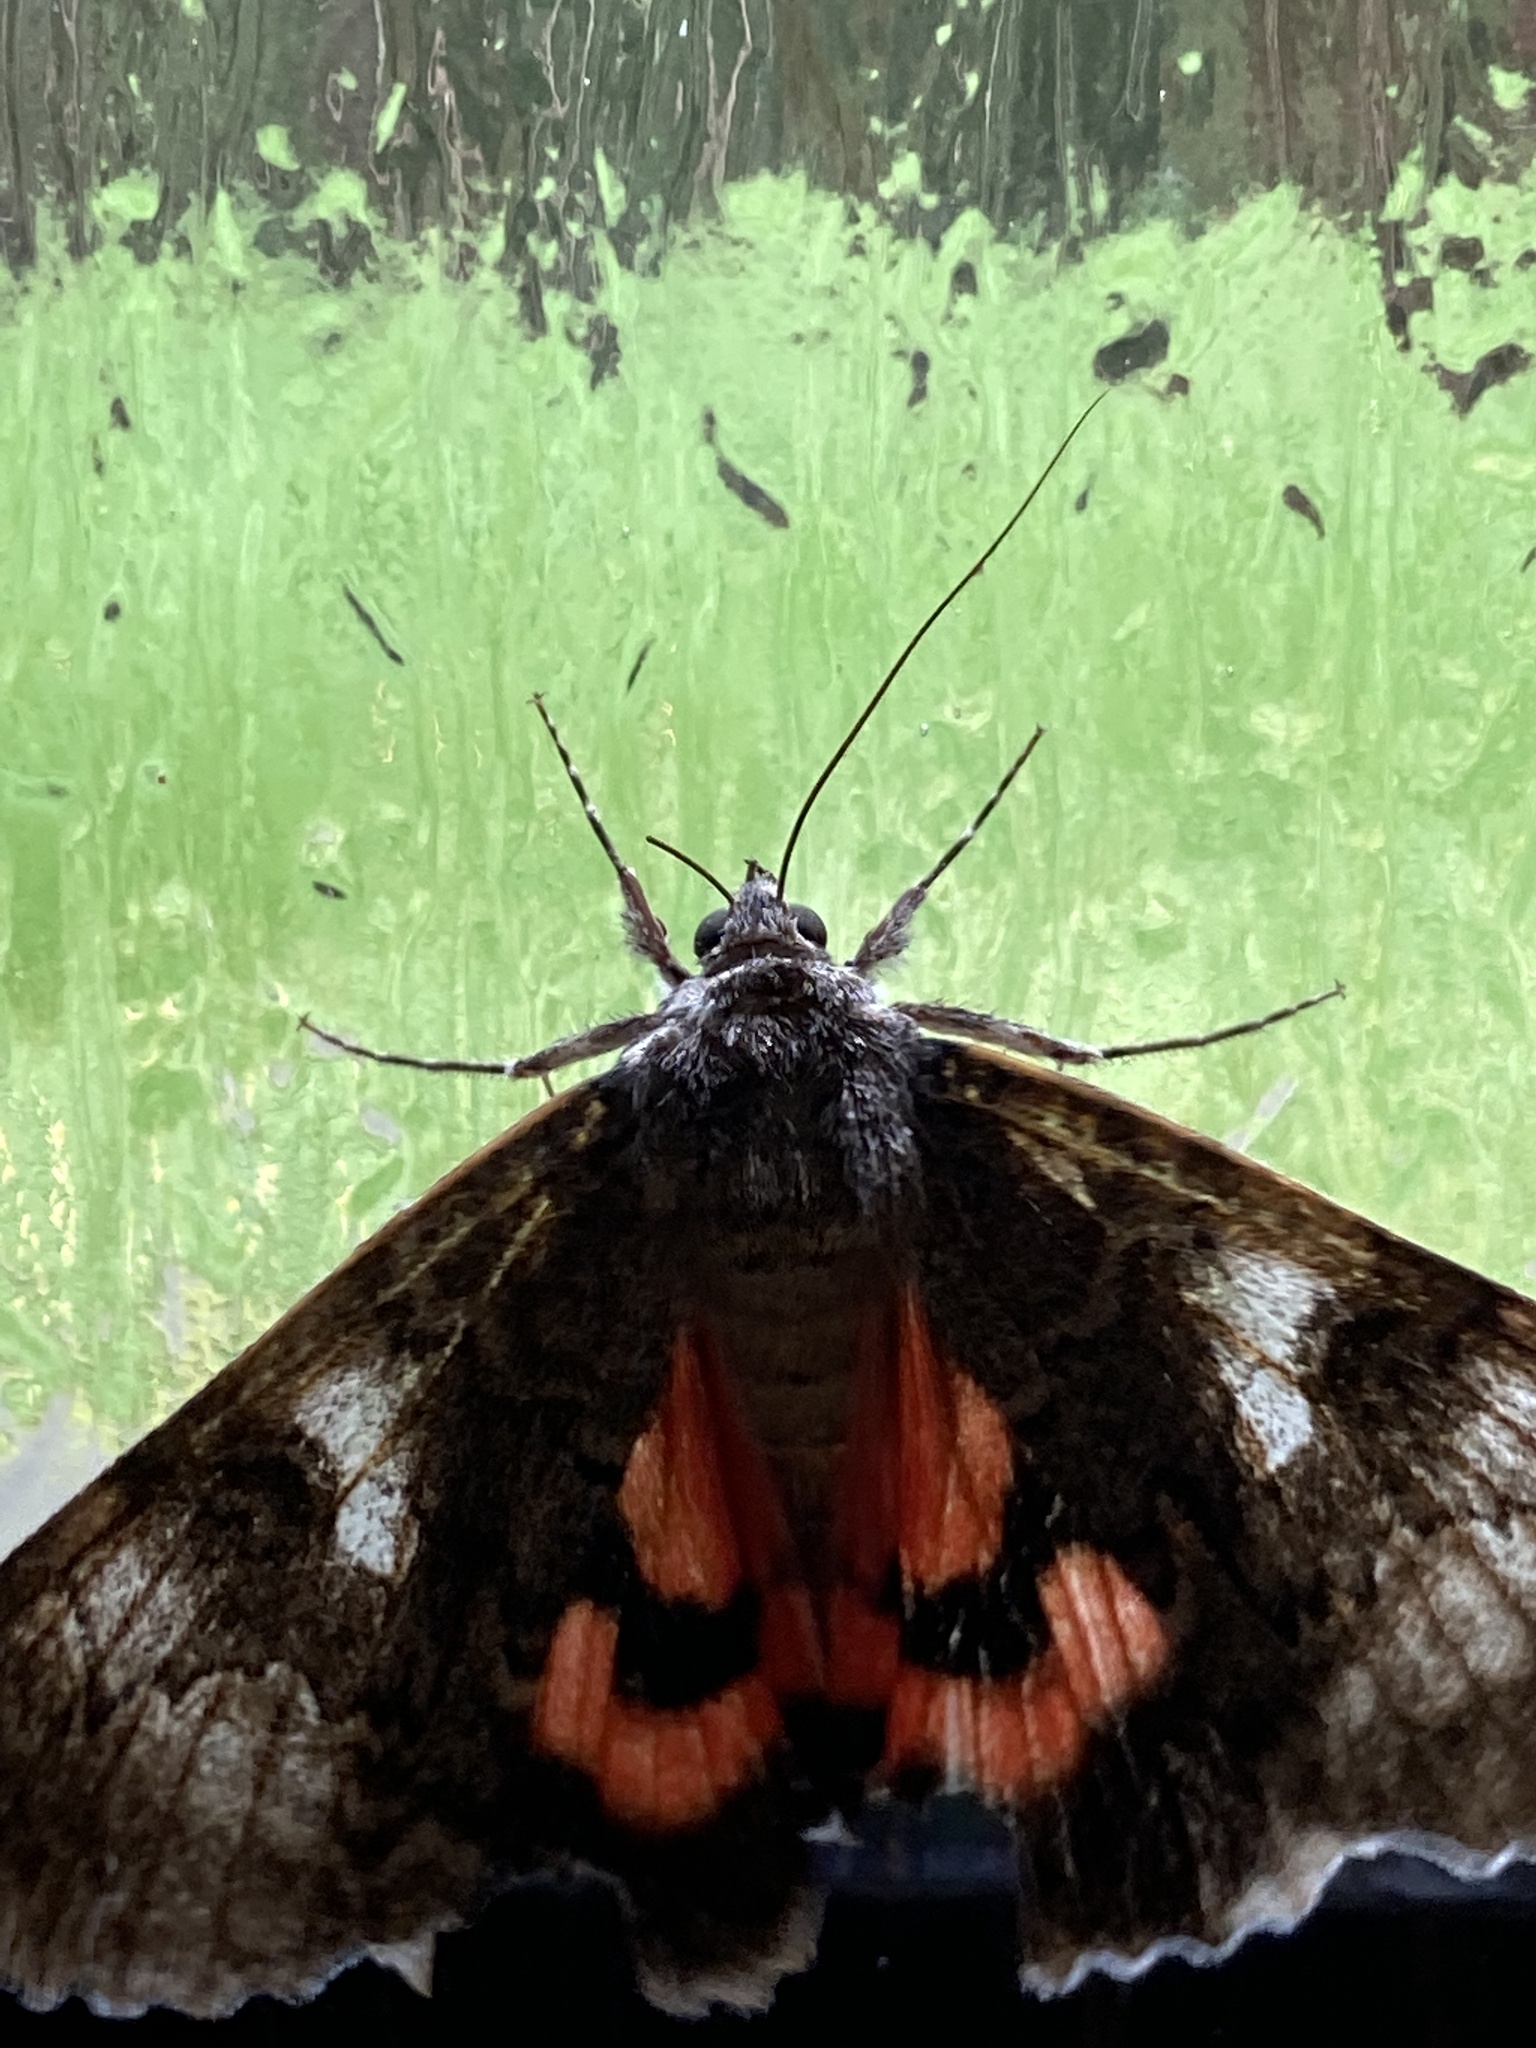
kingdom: Animalia
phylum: Arthropoda
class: Insecta
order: Lepidoptera
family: Erebidae
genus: Catocala
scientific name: Catocala nupta
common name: Red underwing
